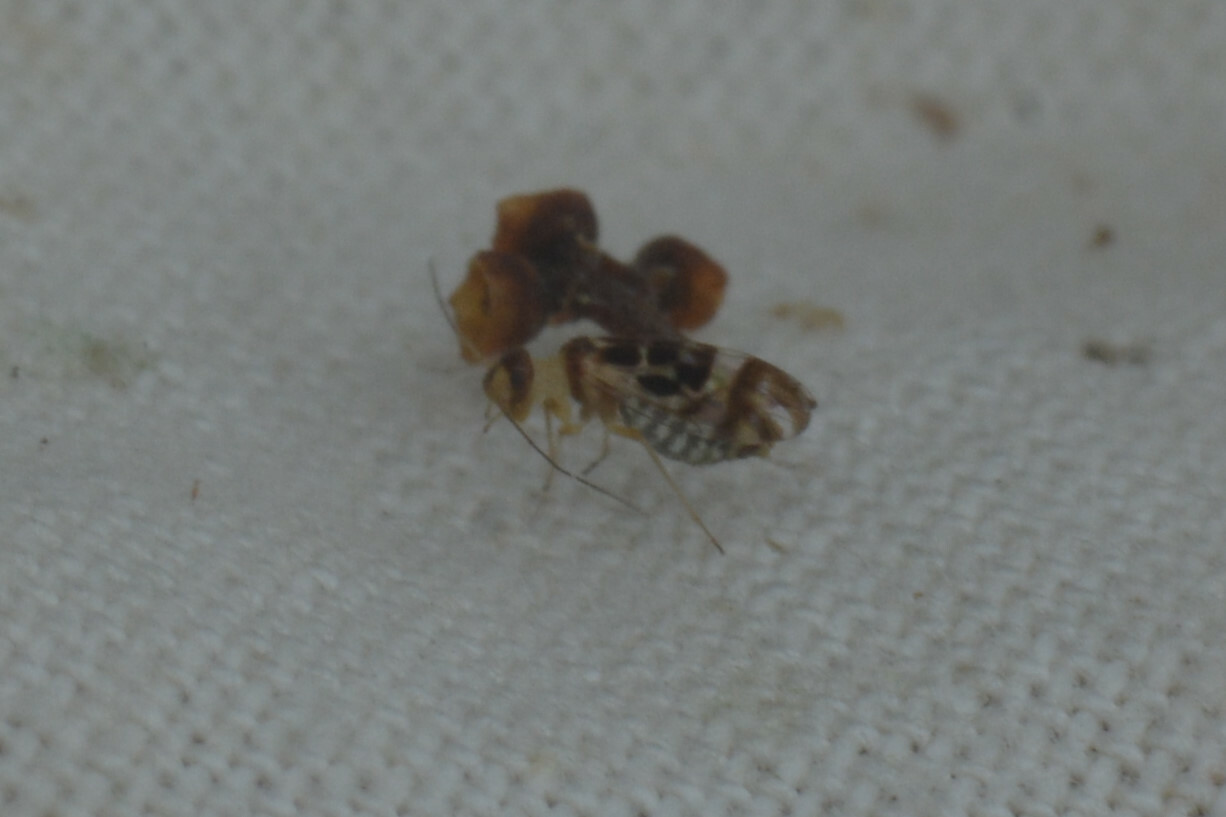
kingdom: Animalia
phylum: Arthropoda
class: Insecta
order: Psocodea
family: Stenopsocidae
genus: Graphopsocus
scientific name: Graphopsocus cruciatus
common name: Lizard bark louse
